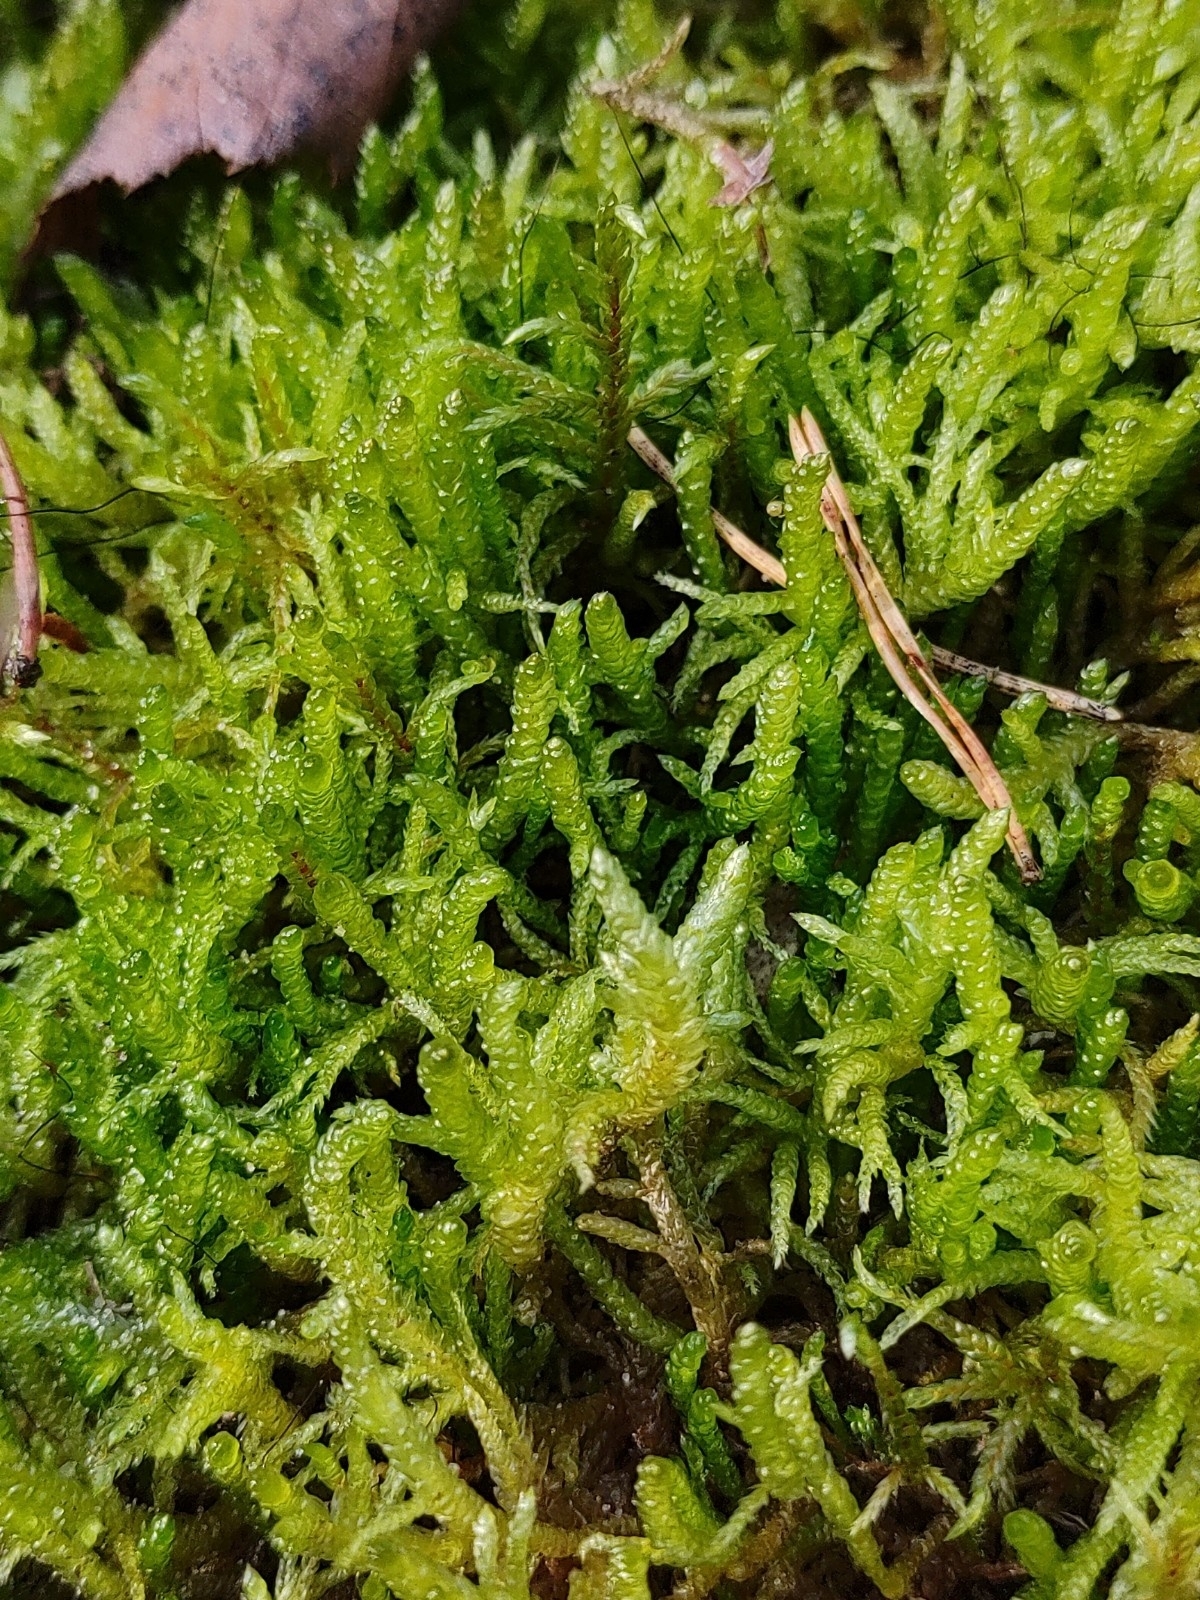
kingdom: Plantae
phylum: Bryophyta
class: Bryopsida
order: Hypnales
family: Brachytheciaceae
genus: Pseudoscleropodium
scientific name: Pseudoscleropodium purum
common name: Neat feather-moss
